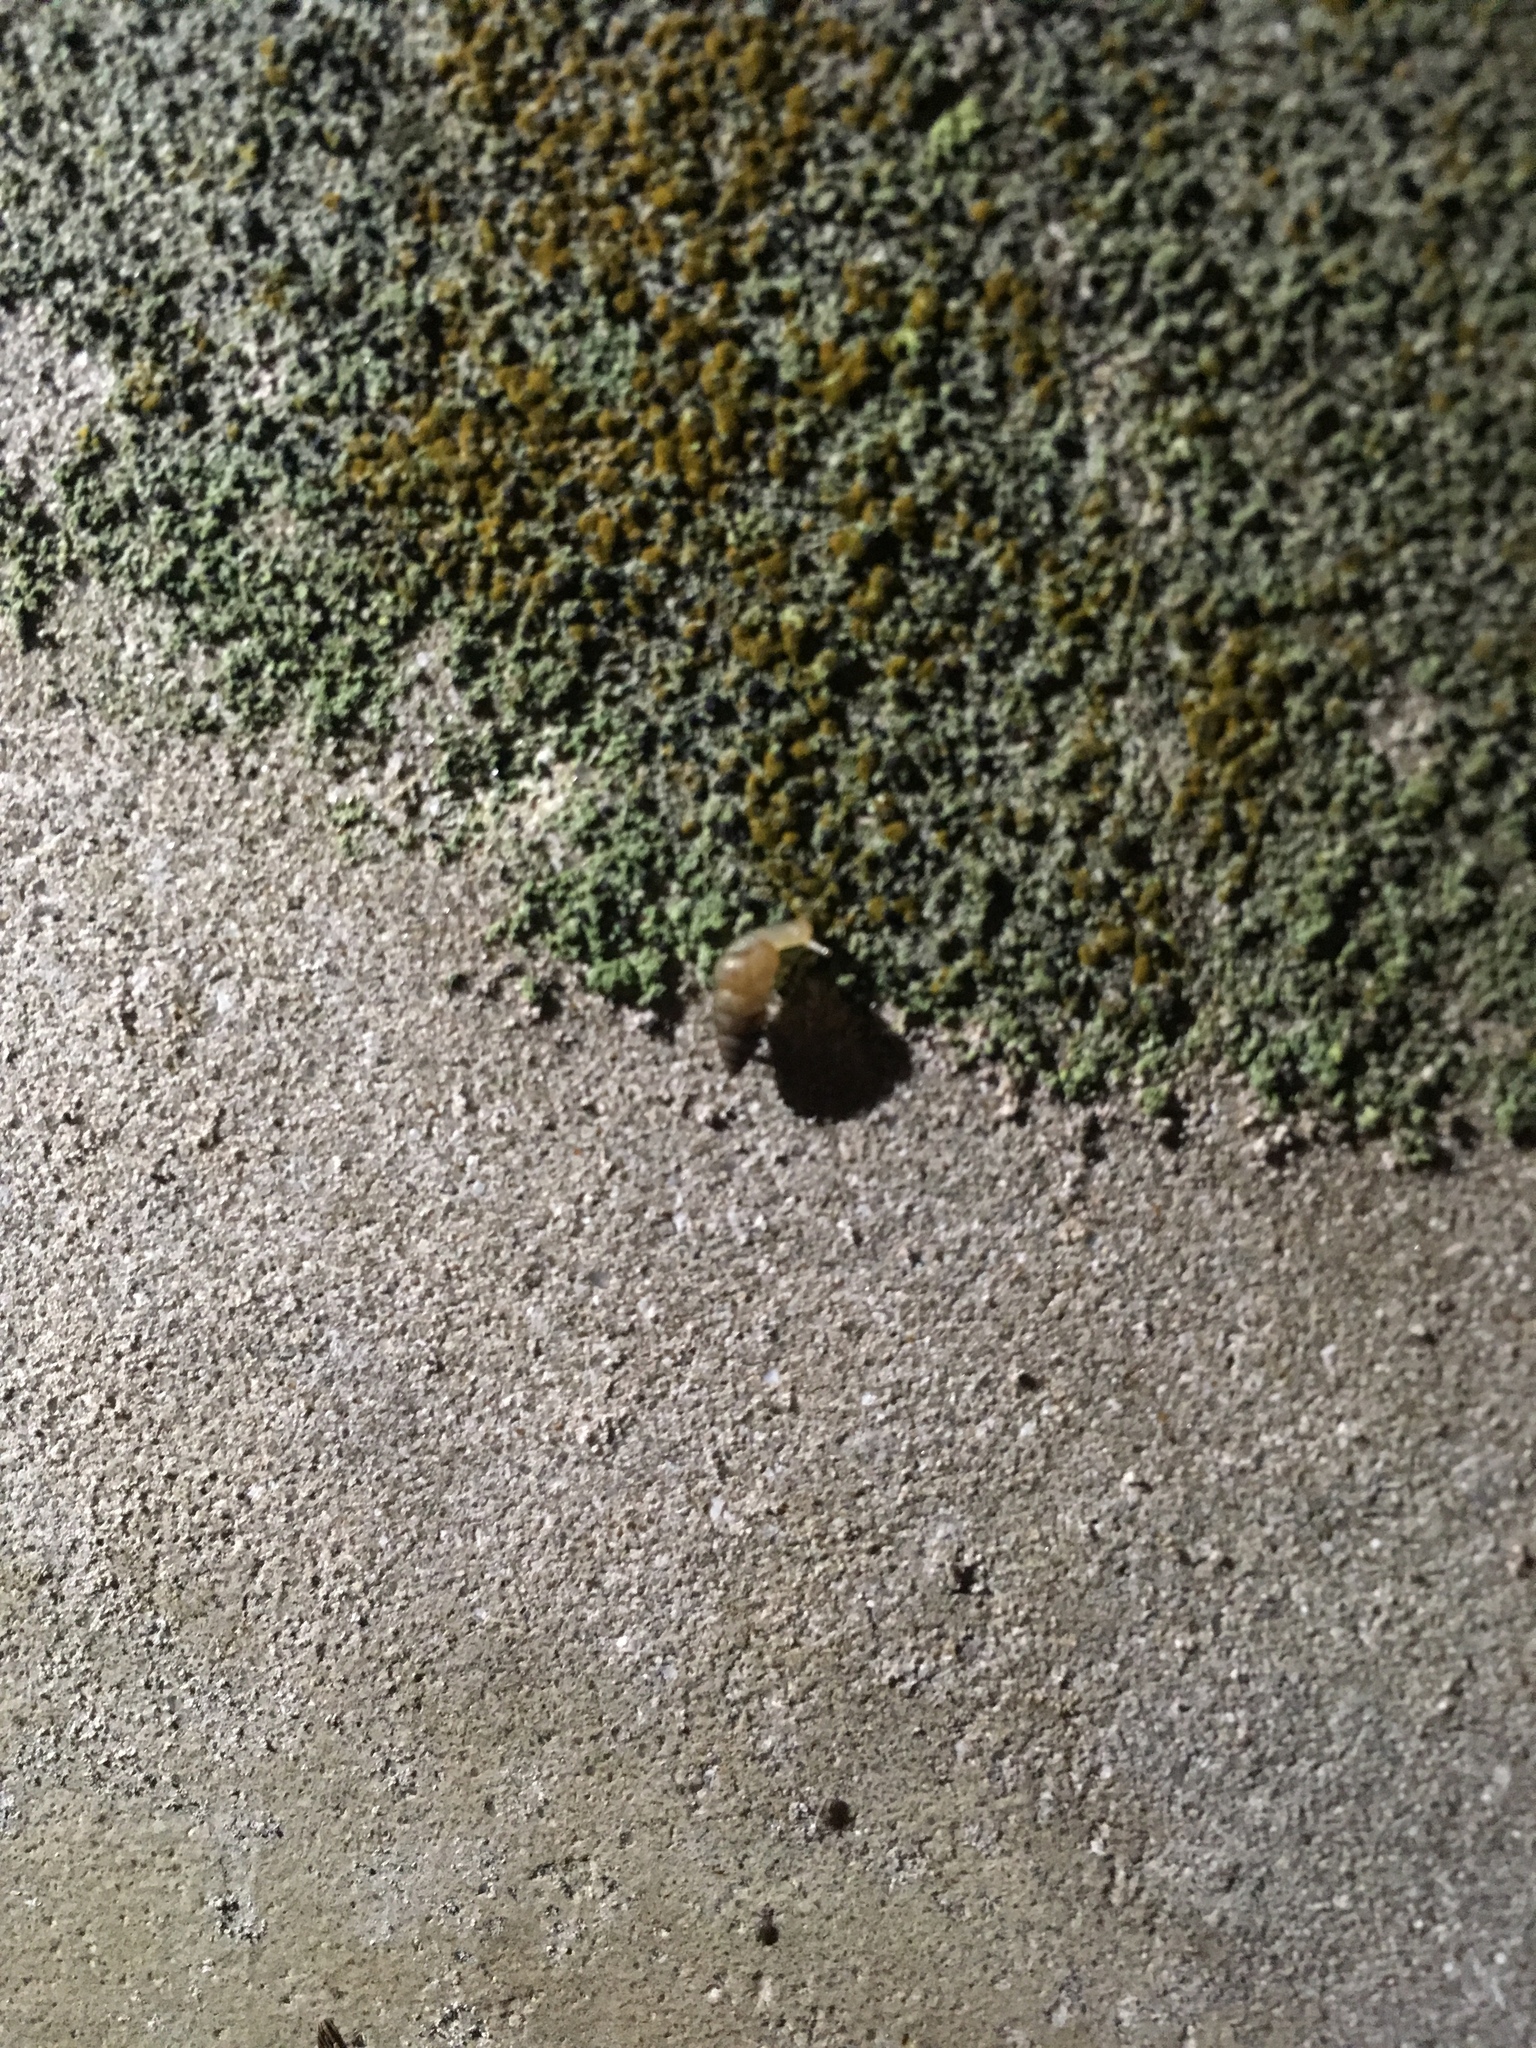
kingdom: Animalia
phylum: Mollusca
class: Gastropoda
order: Stylommatophora
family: Achatinidae
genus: Beckianum
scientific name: Beckianum beckianum
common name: Land snail
